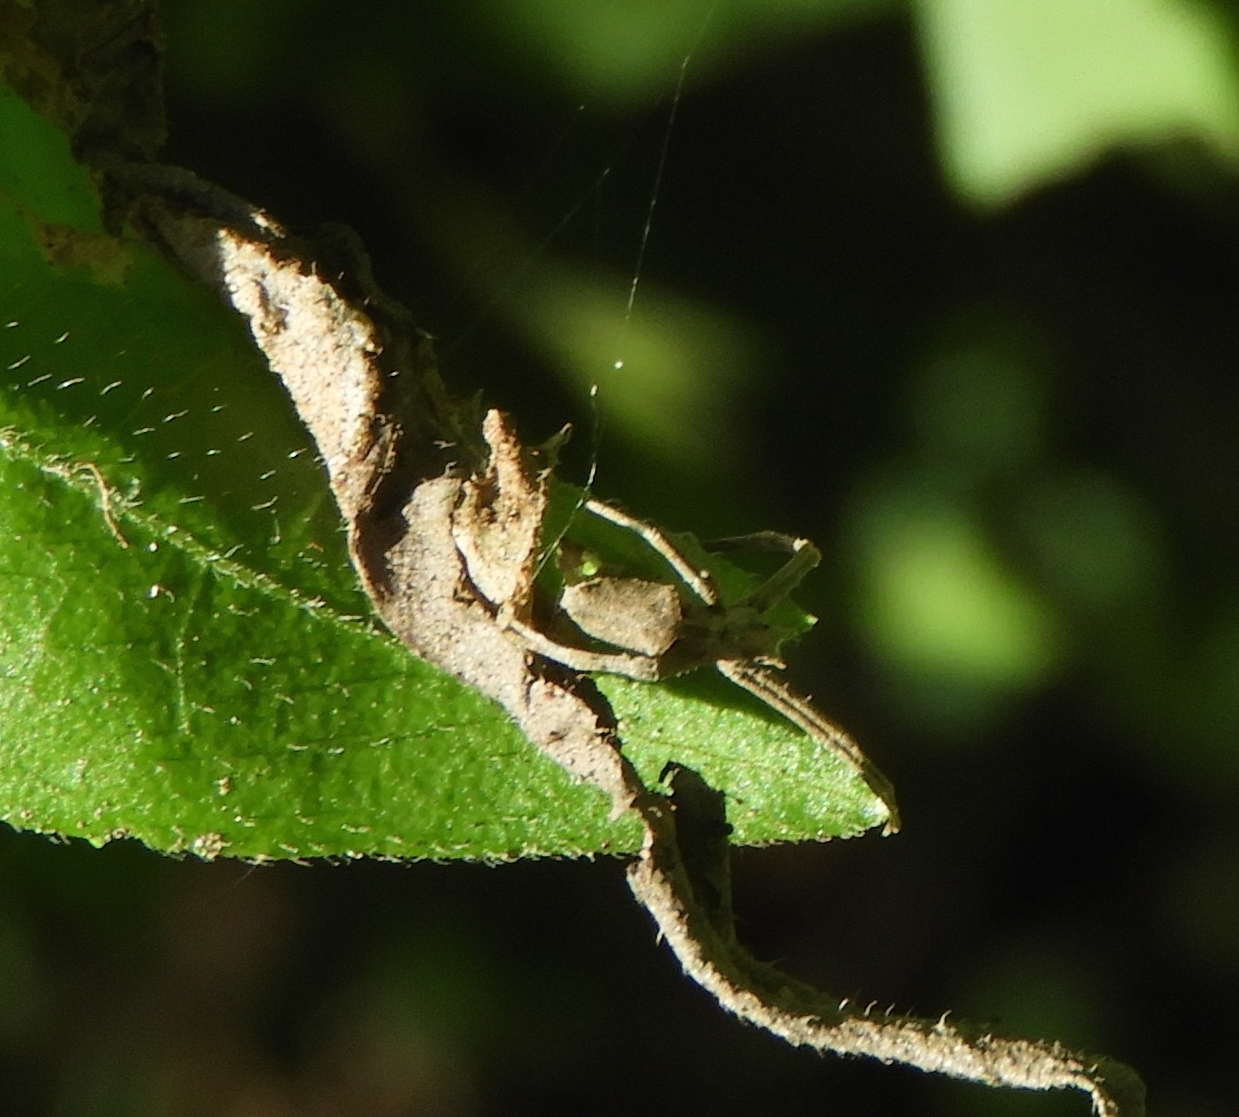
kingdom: Animalia
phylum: Arthropoda
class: Arachnida
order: Araneae
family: Deinopidae
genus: Deinopis
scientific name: Deinopis aurita
